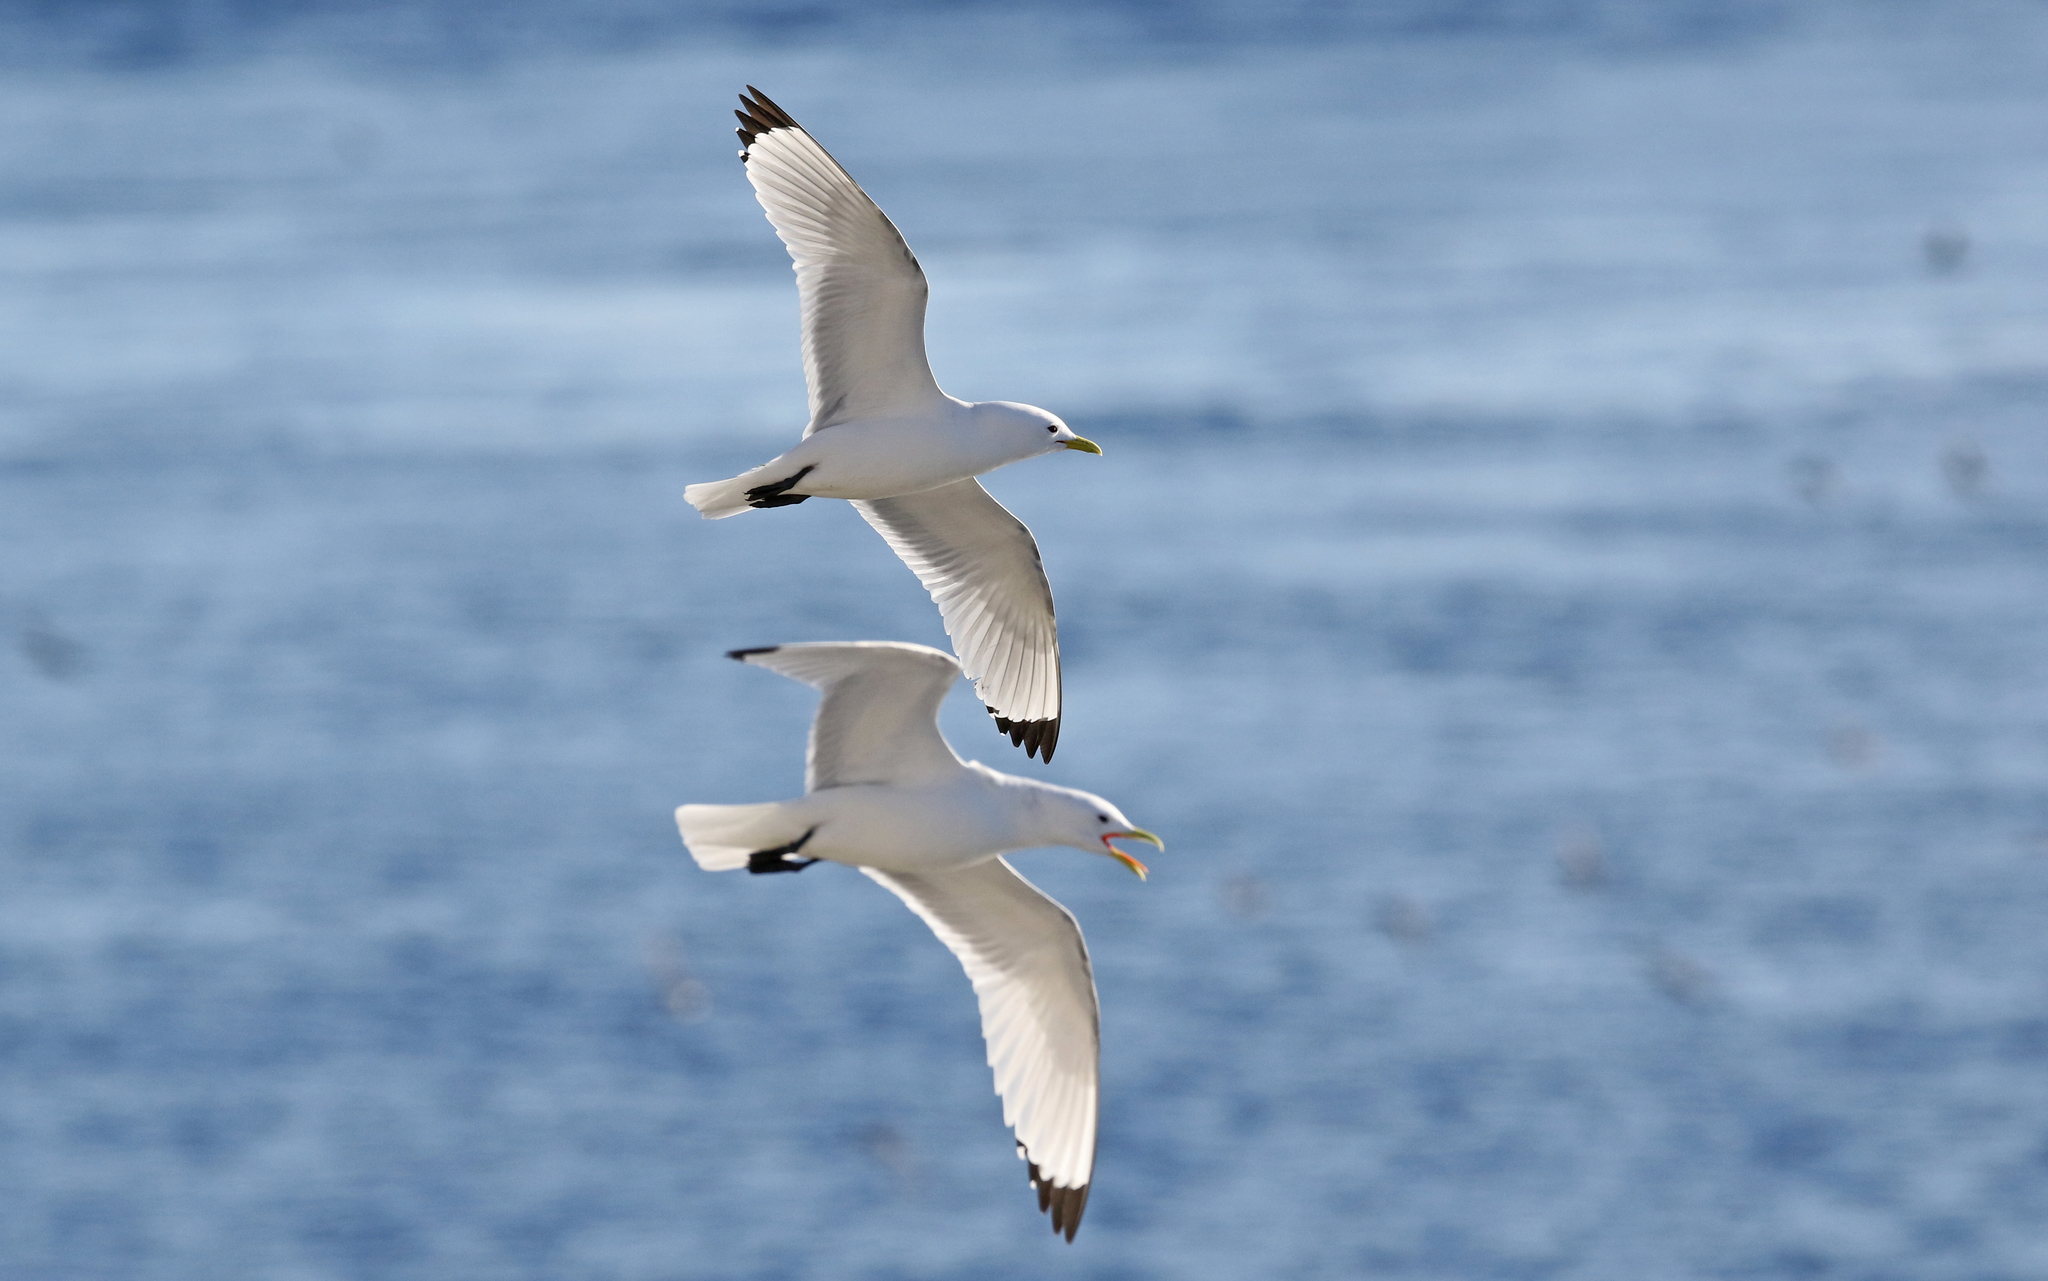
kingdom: Animalia
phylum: Chordata
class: Aves
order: Charadriiformes
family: Laridae
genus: Rissa
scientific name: Rissa tridactyla
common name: Black-legged kittiwake
